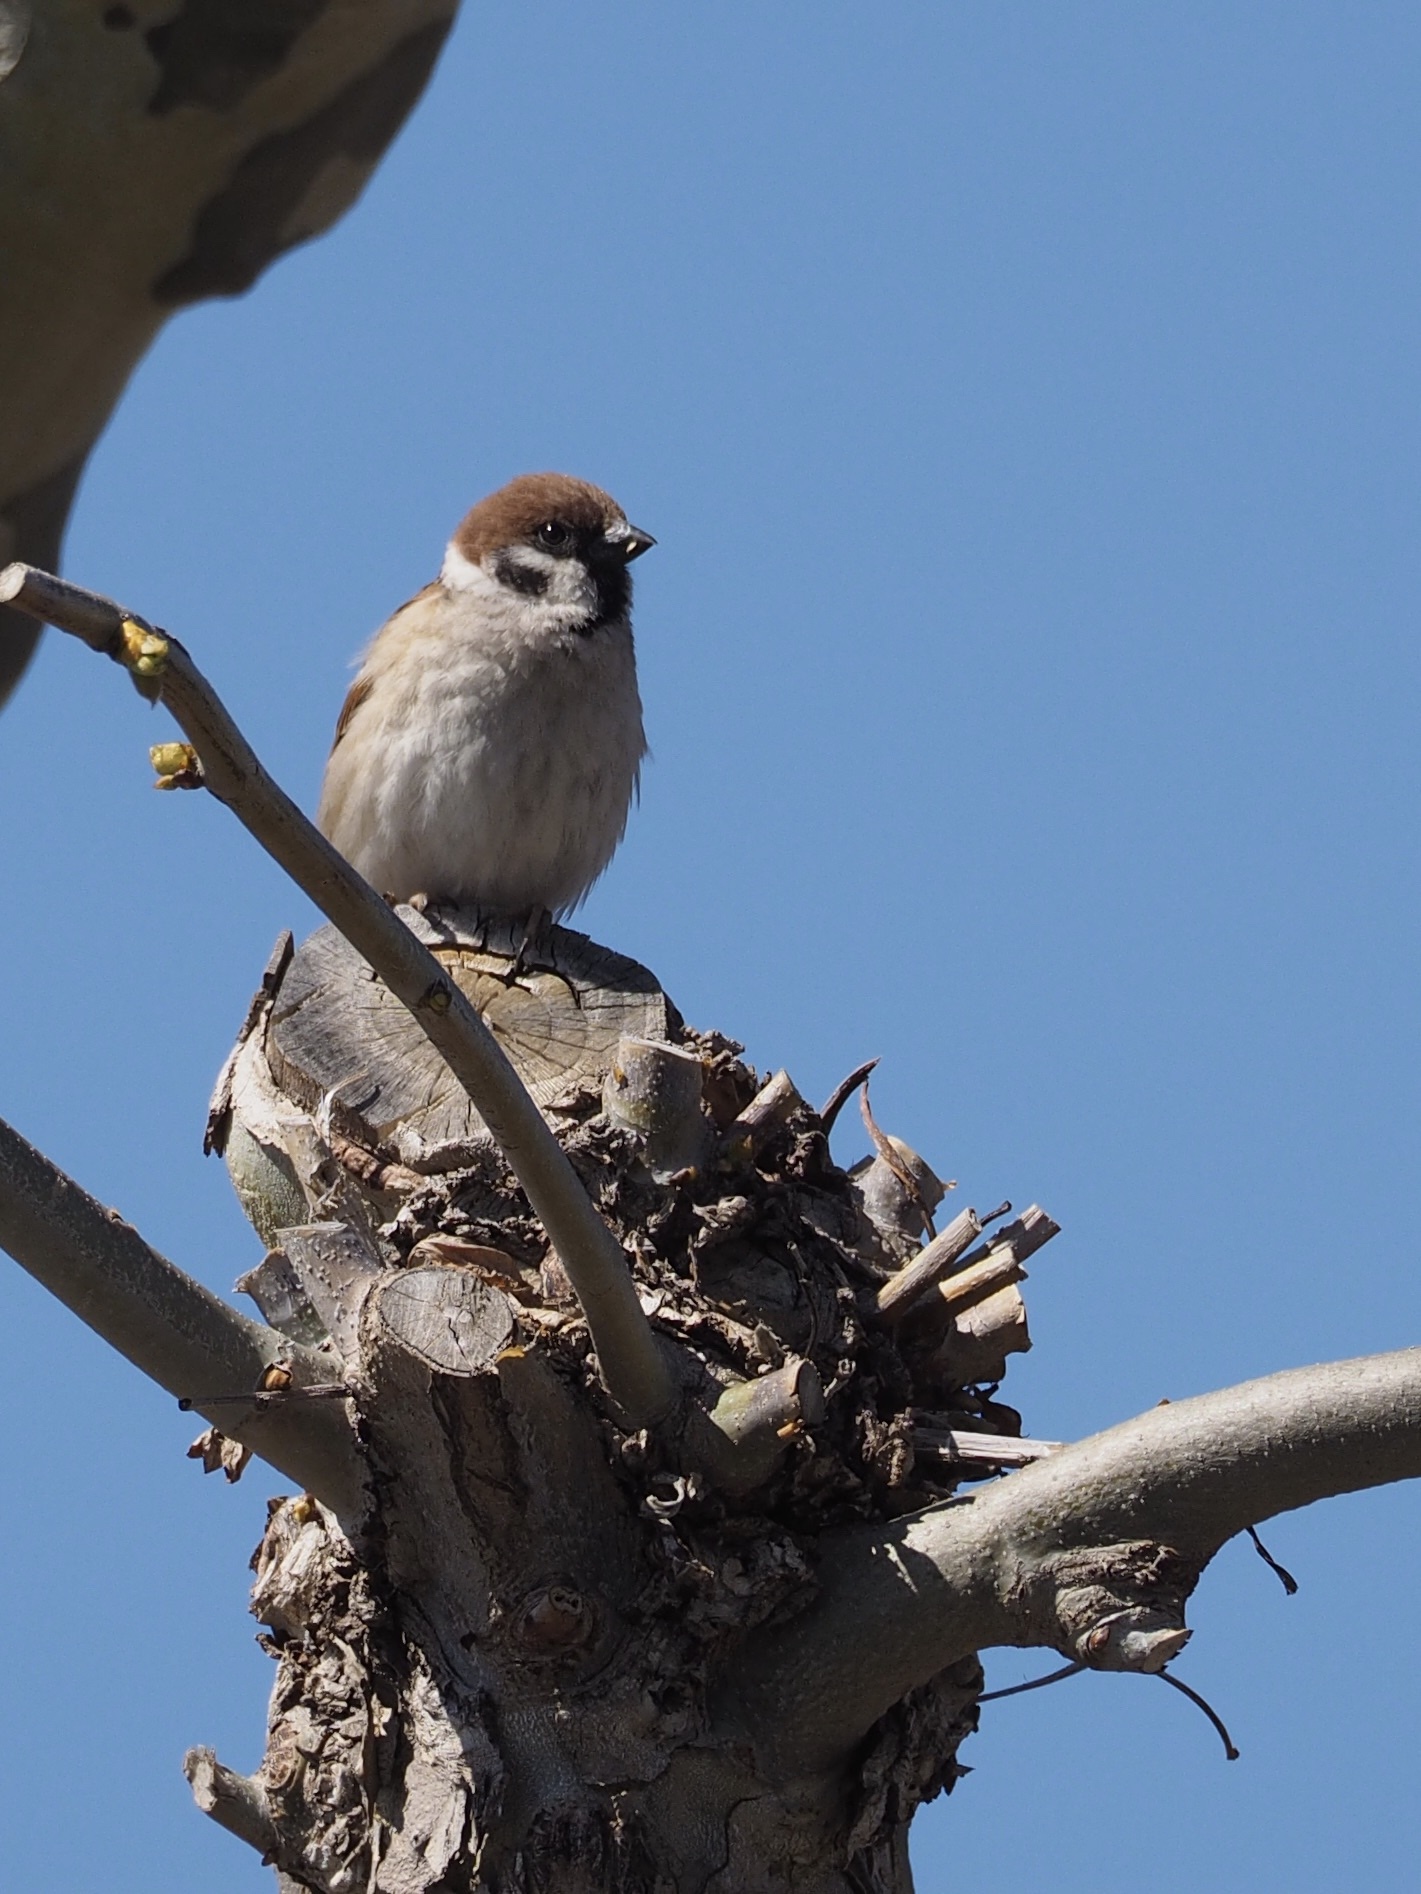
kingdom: Animalia
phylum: Chordata
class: Aves
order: Passeriformes
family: Passeridae
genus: Passer
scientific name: Passer montanus
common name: Eurasian tree sparrow
